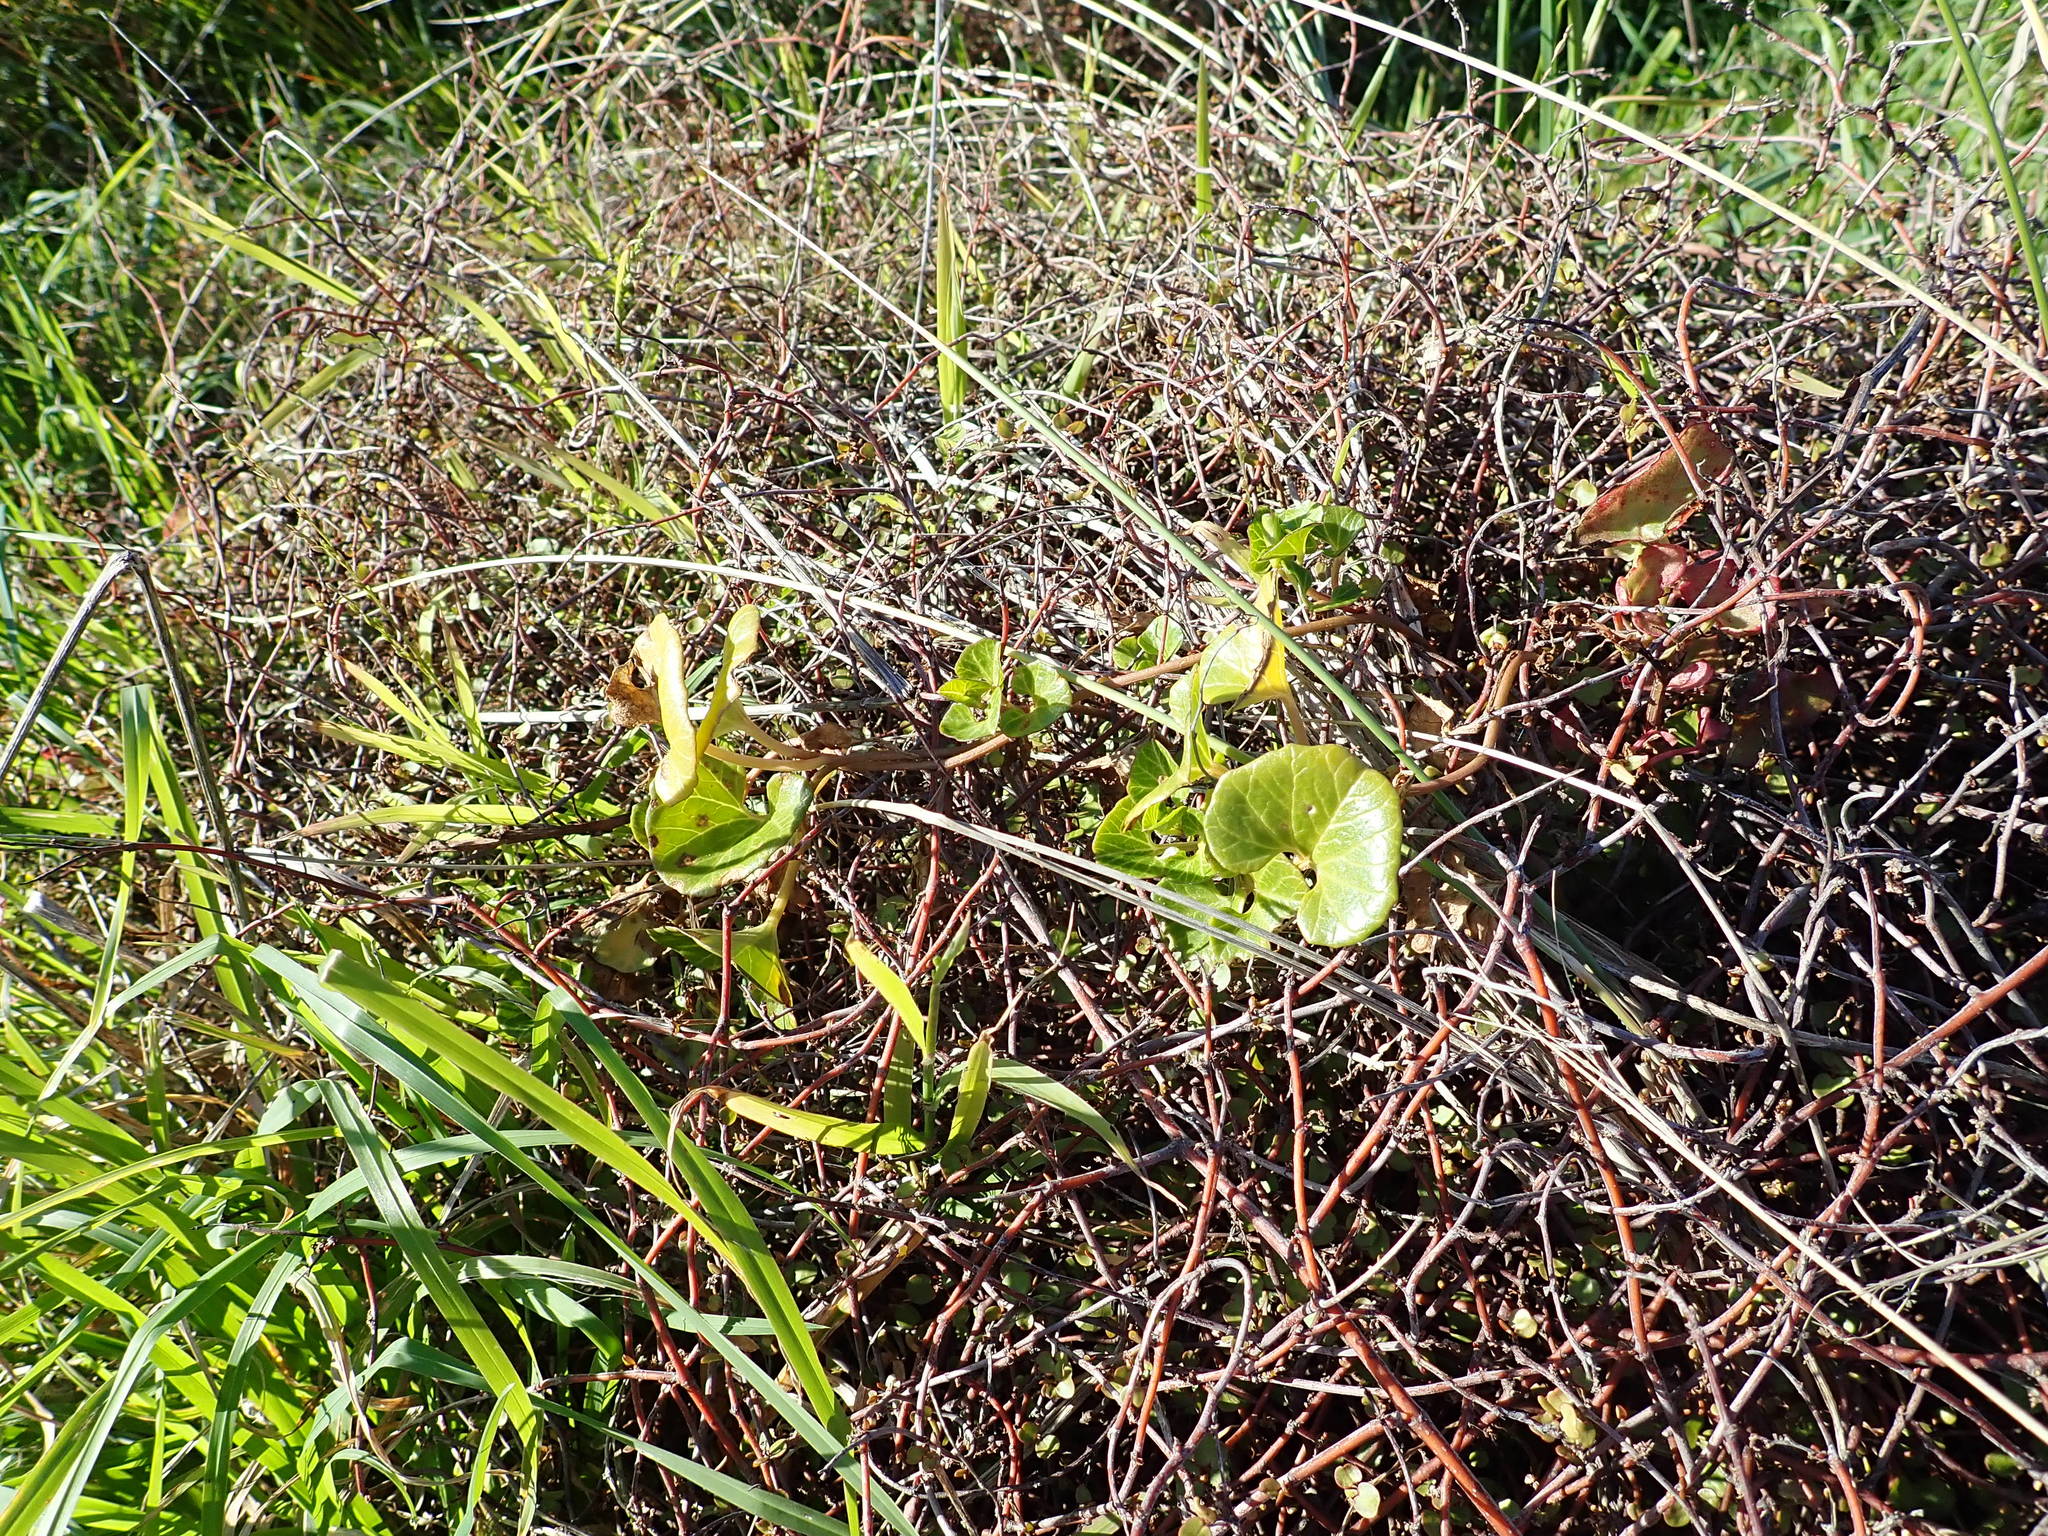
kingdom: Plantae
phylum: Tracheophyta
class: Magnoliopsida
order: Solanales
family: Convolvulaceae
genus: Calystegia
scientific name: Calystegia soldanella
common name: Sea bindweed
